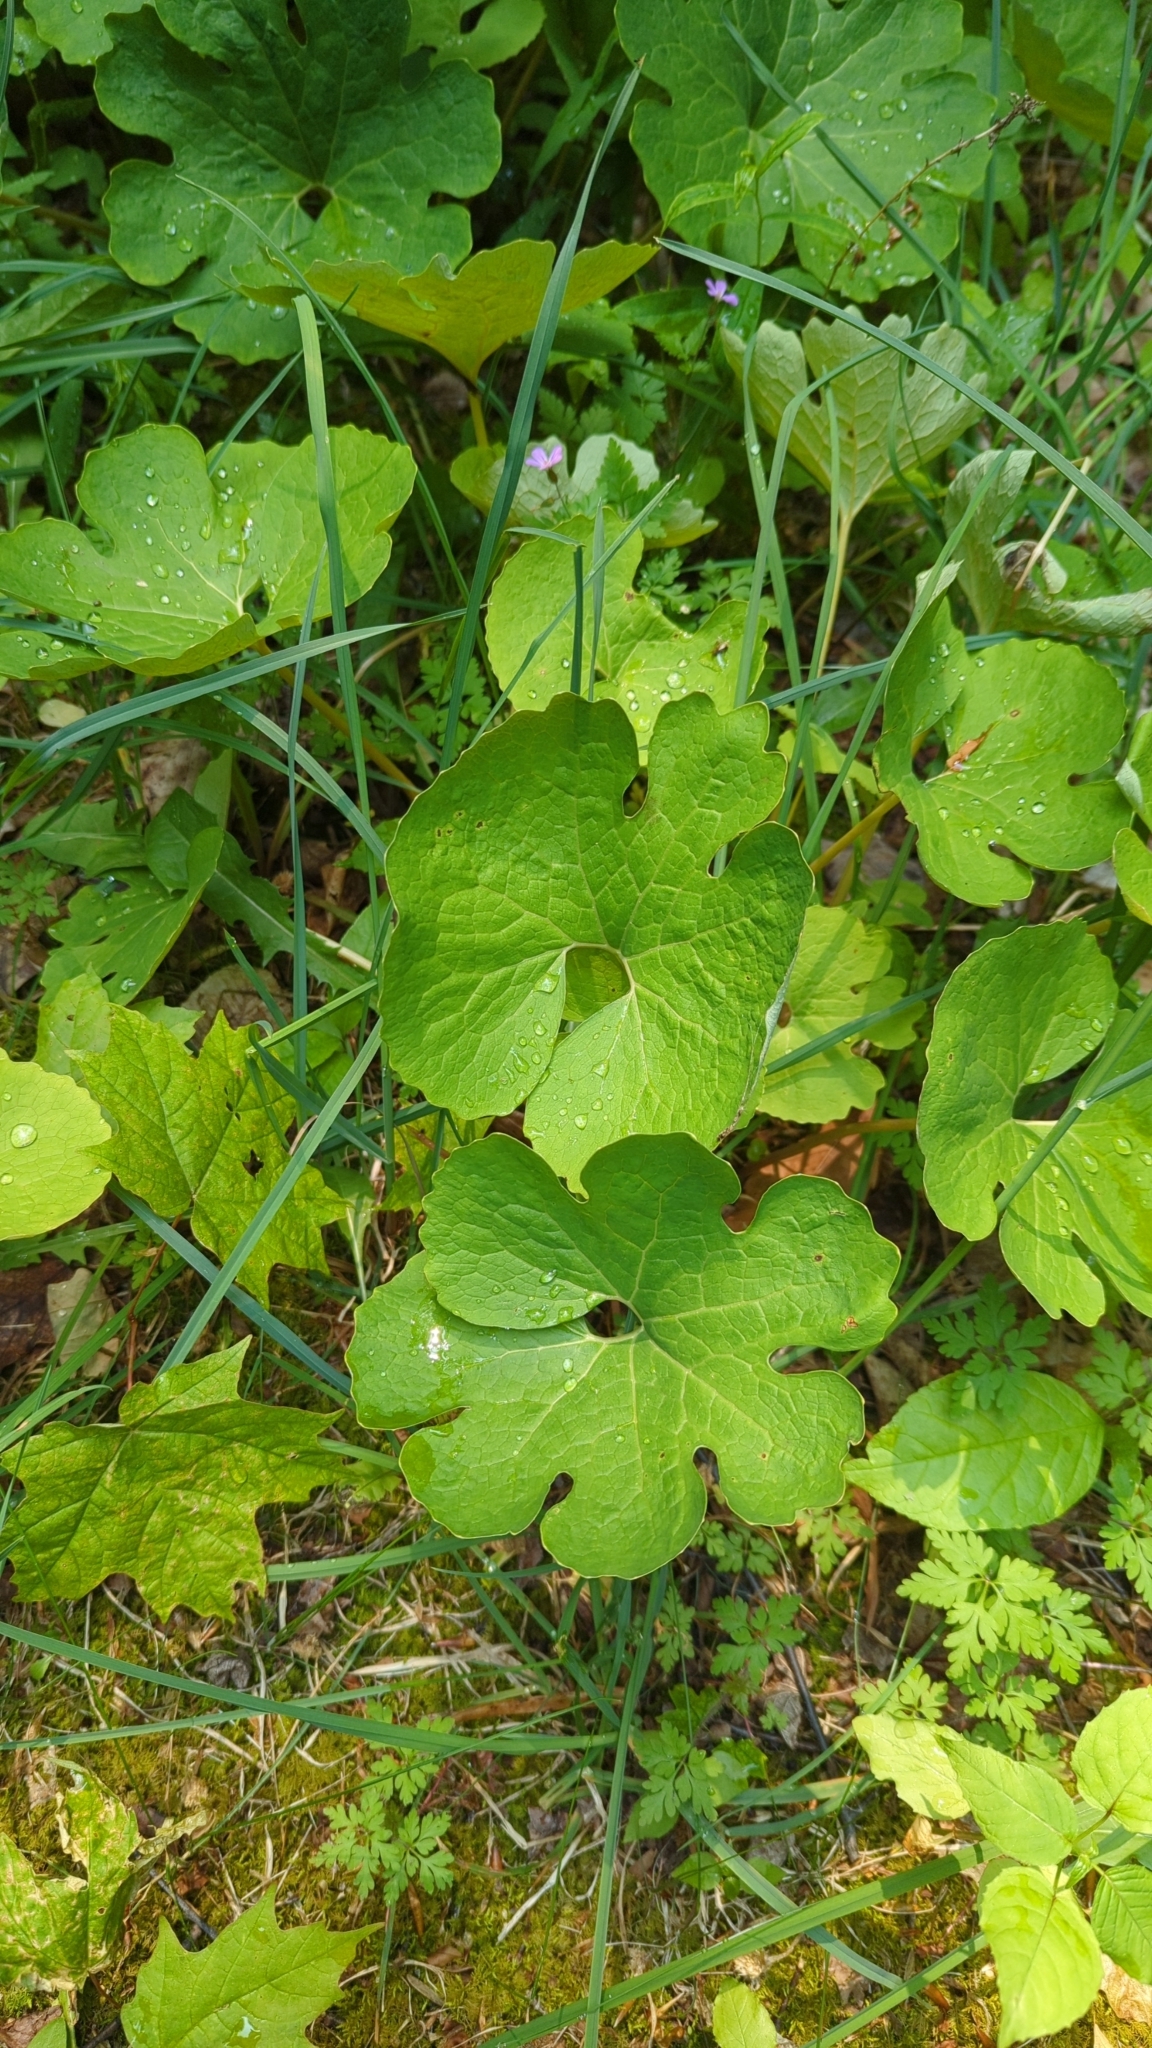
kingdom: Plantae
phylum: Tracheophyta
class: Magnoliopsida
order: Ranunculales
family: Papaveraceae
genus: Sanguinaria
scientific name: Sanguinaria canadensis
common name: Bloodroot
